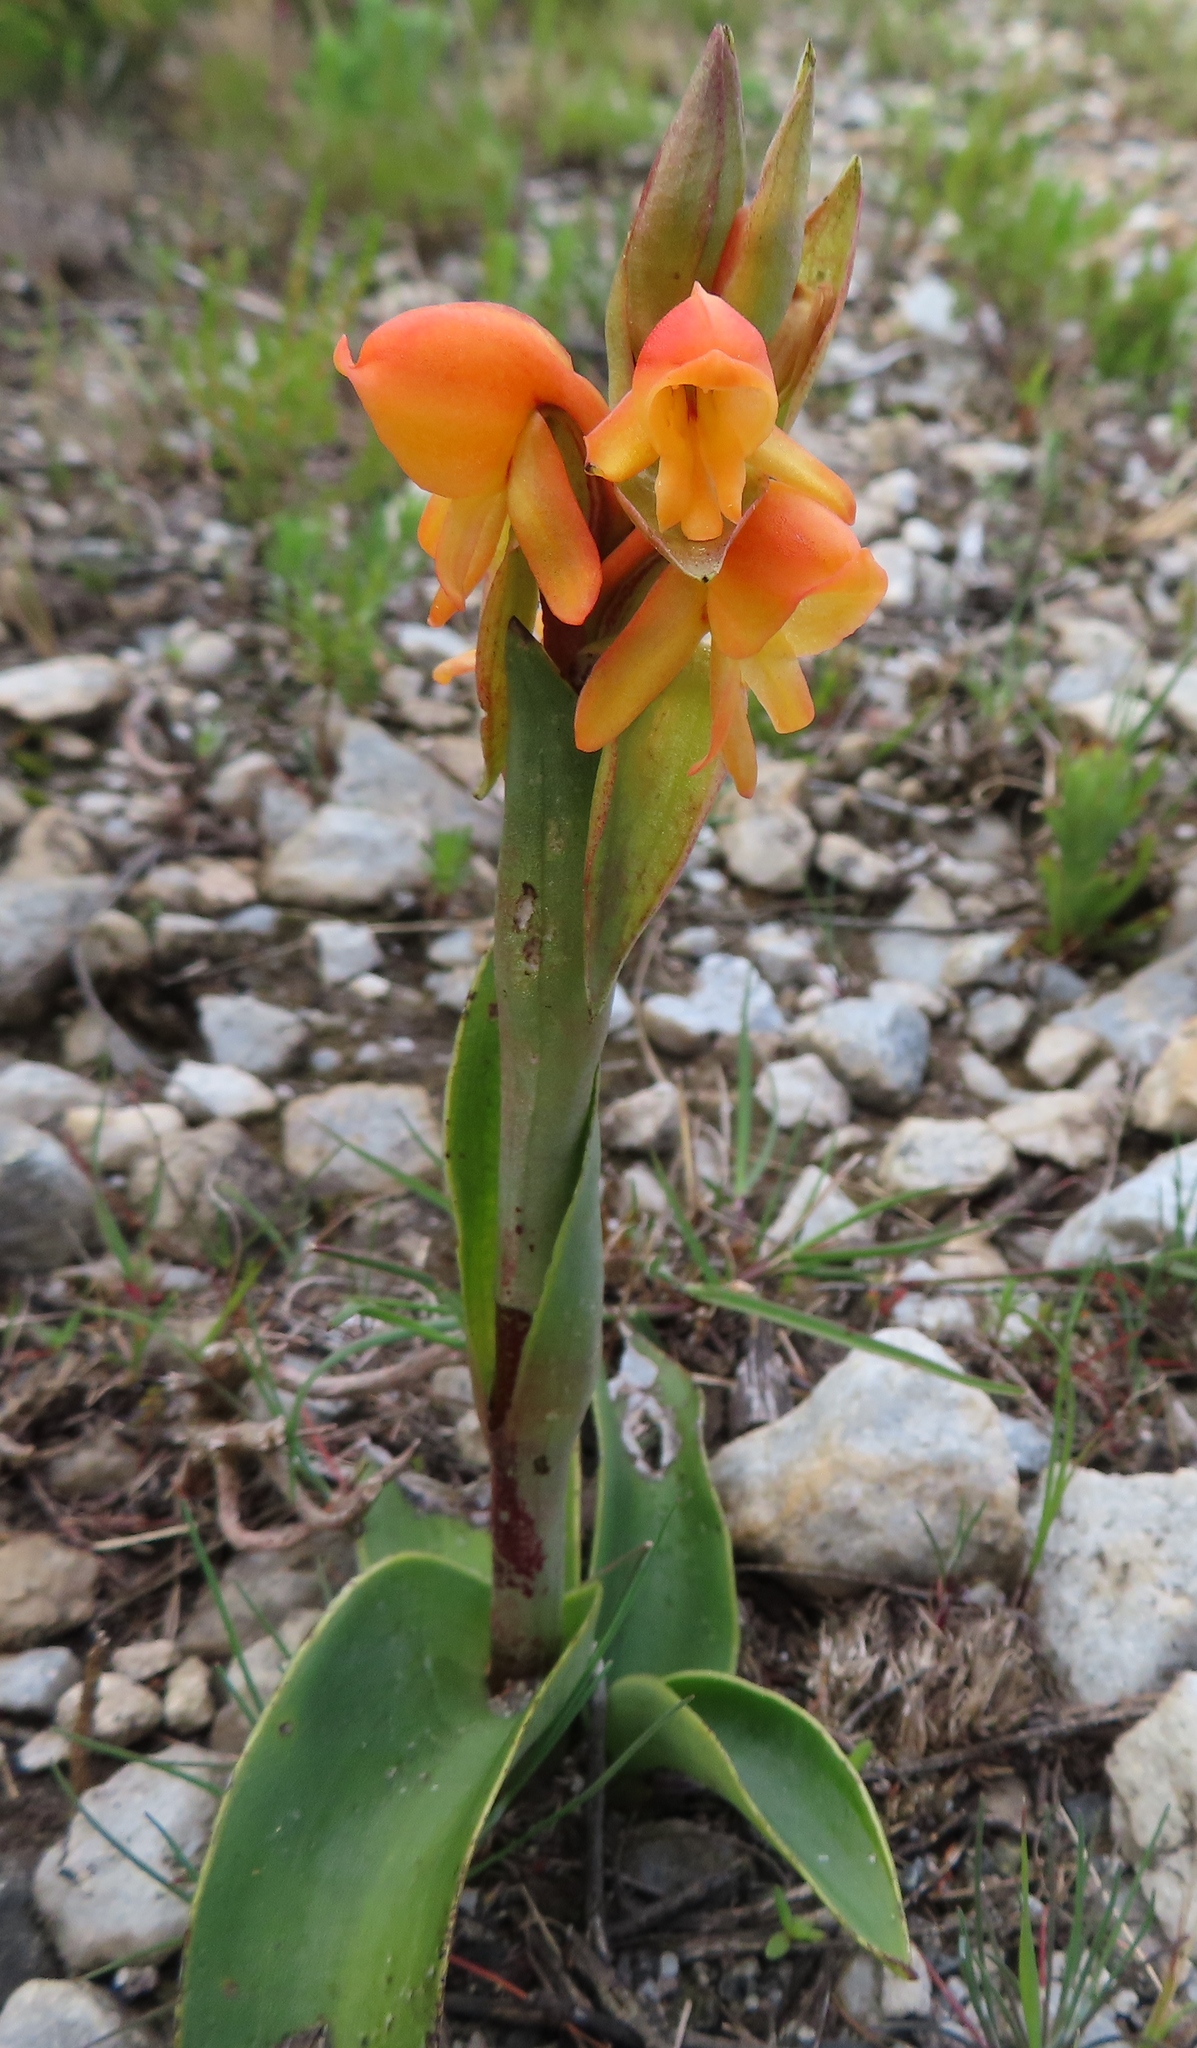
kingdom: Plantae
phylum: Tracheophyta
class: Liliopsida
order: Asparagales
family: Orchidaceae
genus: Satyrium
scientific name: Satyrium coriifolium
